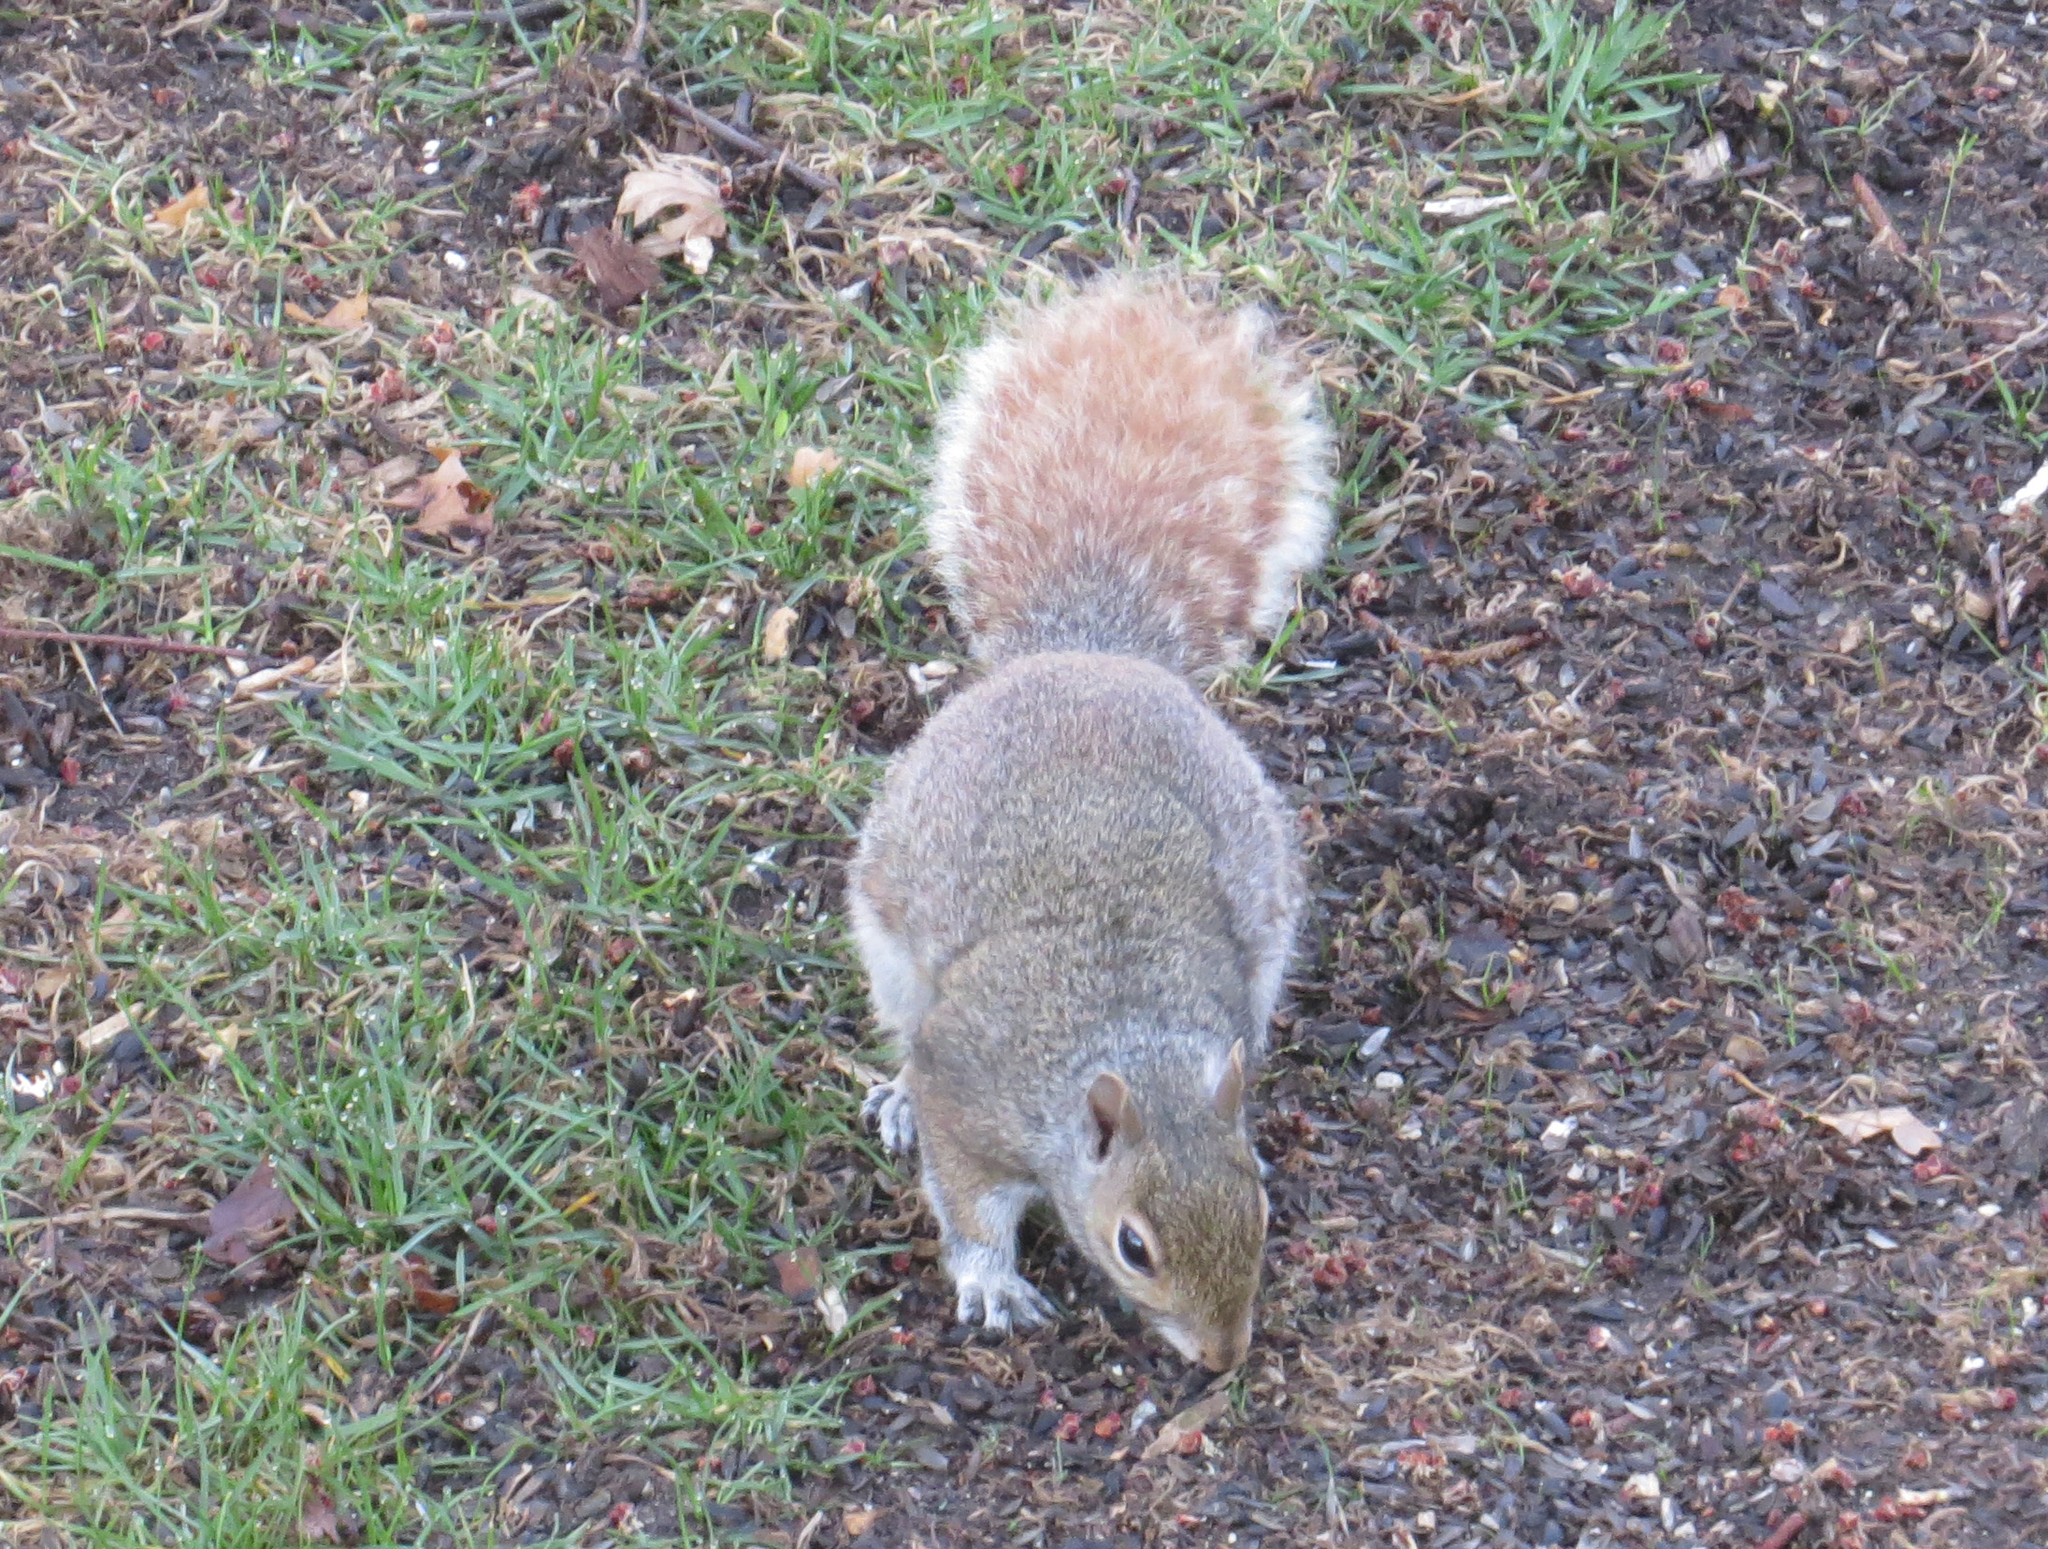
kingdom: Animalia
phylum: Chordata
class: Mammalia
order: Rodentia
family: Sciuridae
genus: Sciurus
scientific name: Sciurus carolinensis
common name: Eastern gray squirrel
